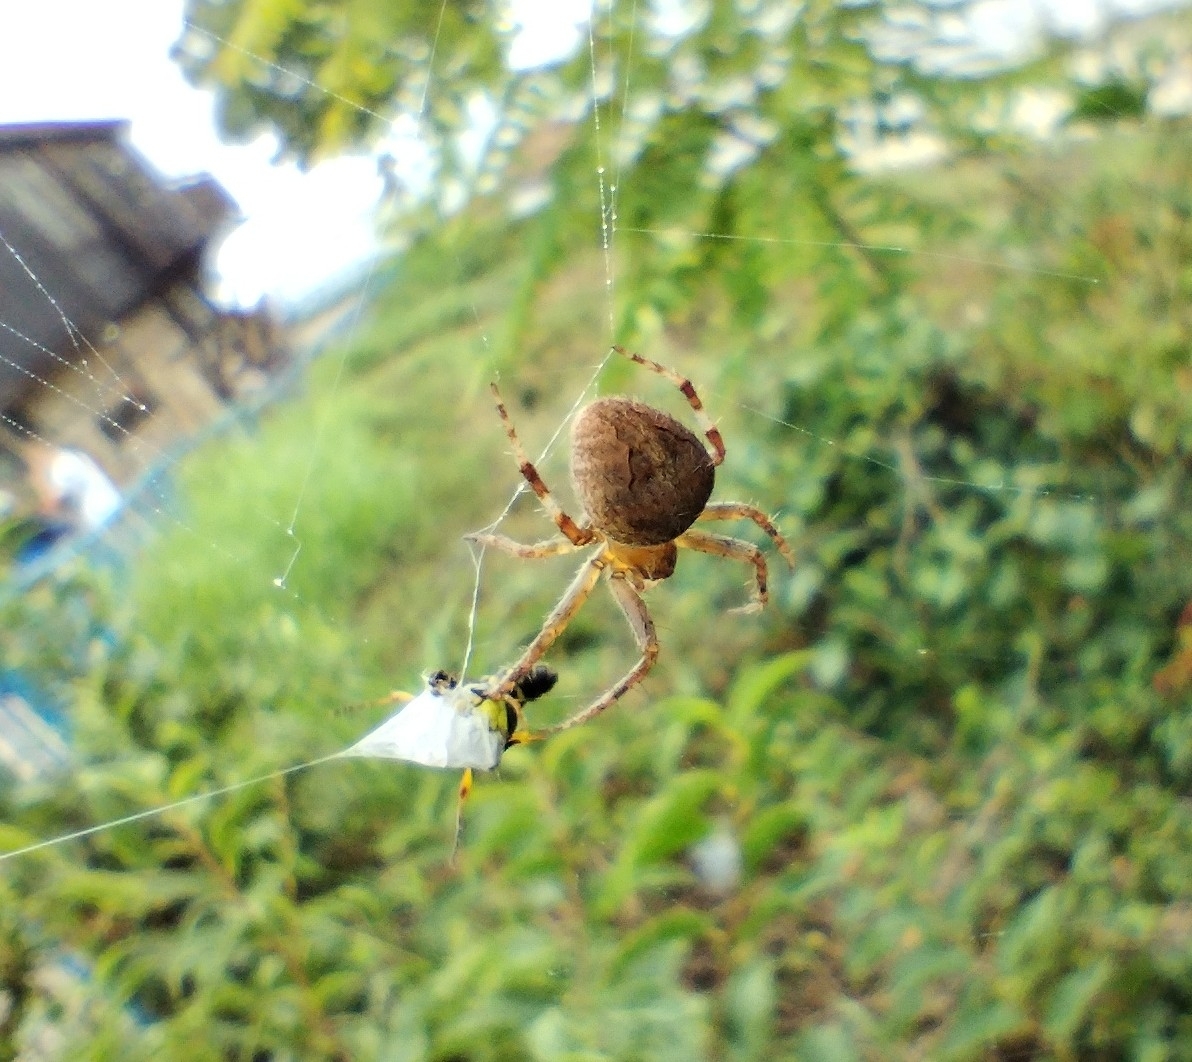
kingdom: Animalia
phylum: Arthropoda
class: Arachnida
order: Araneae
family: Araneidae
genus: Neoscona
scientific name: Neoscona subfusca
